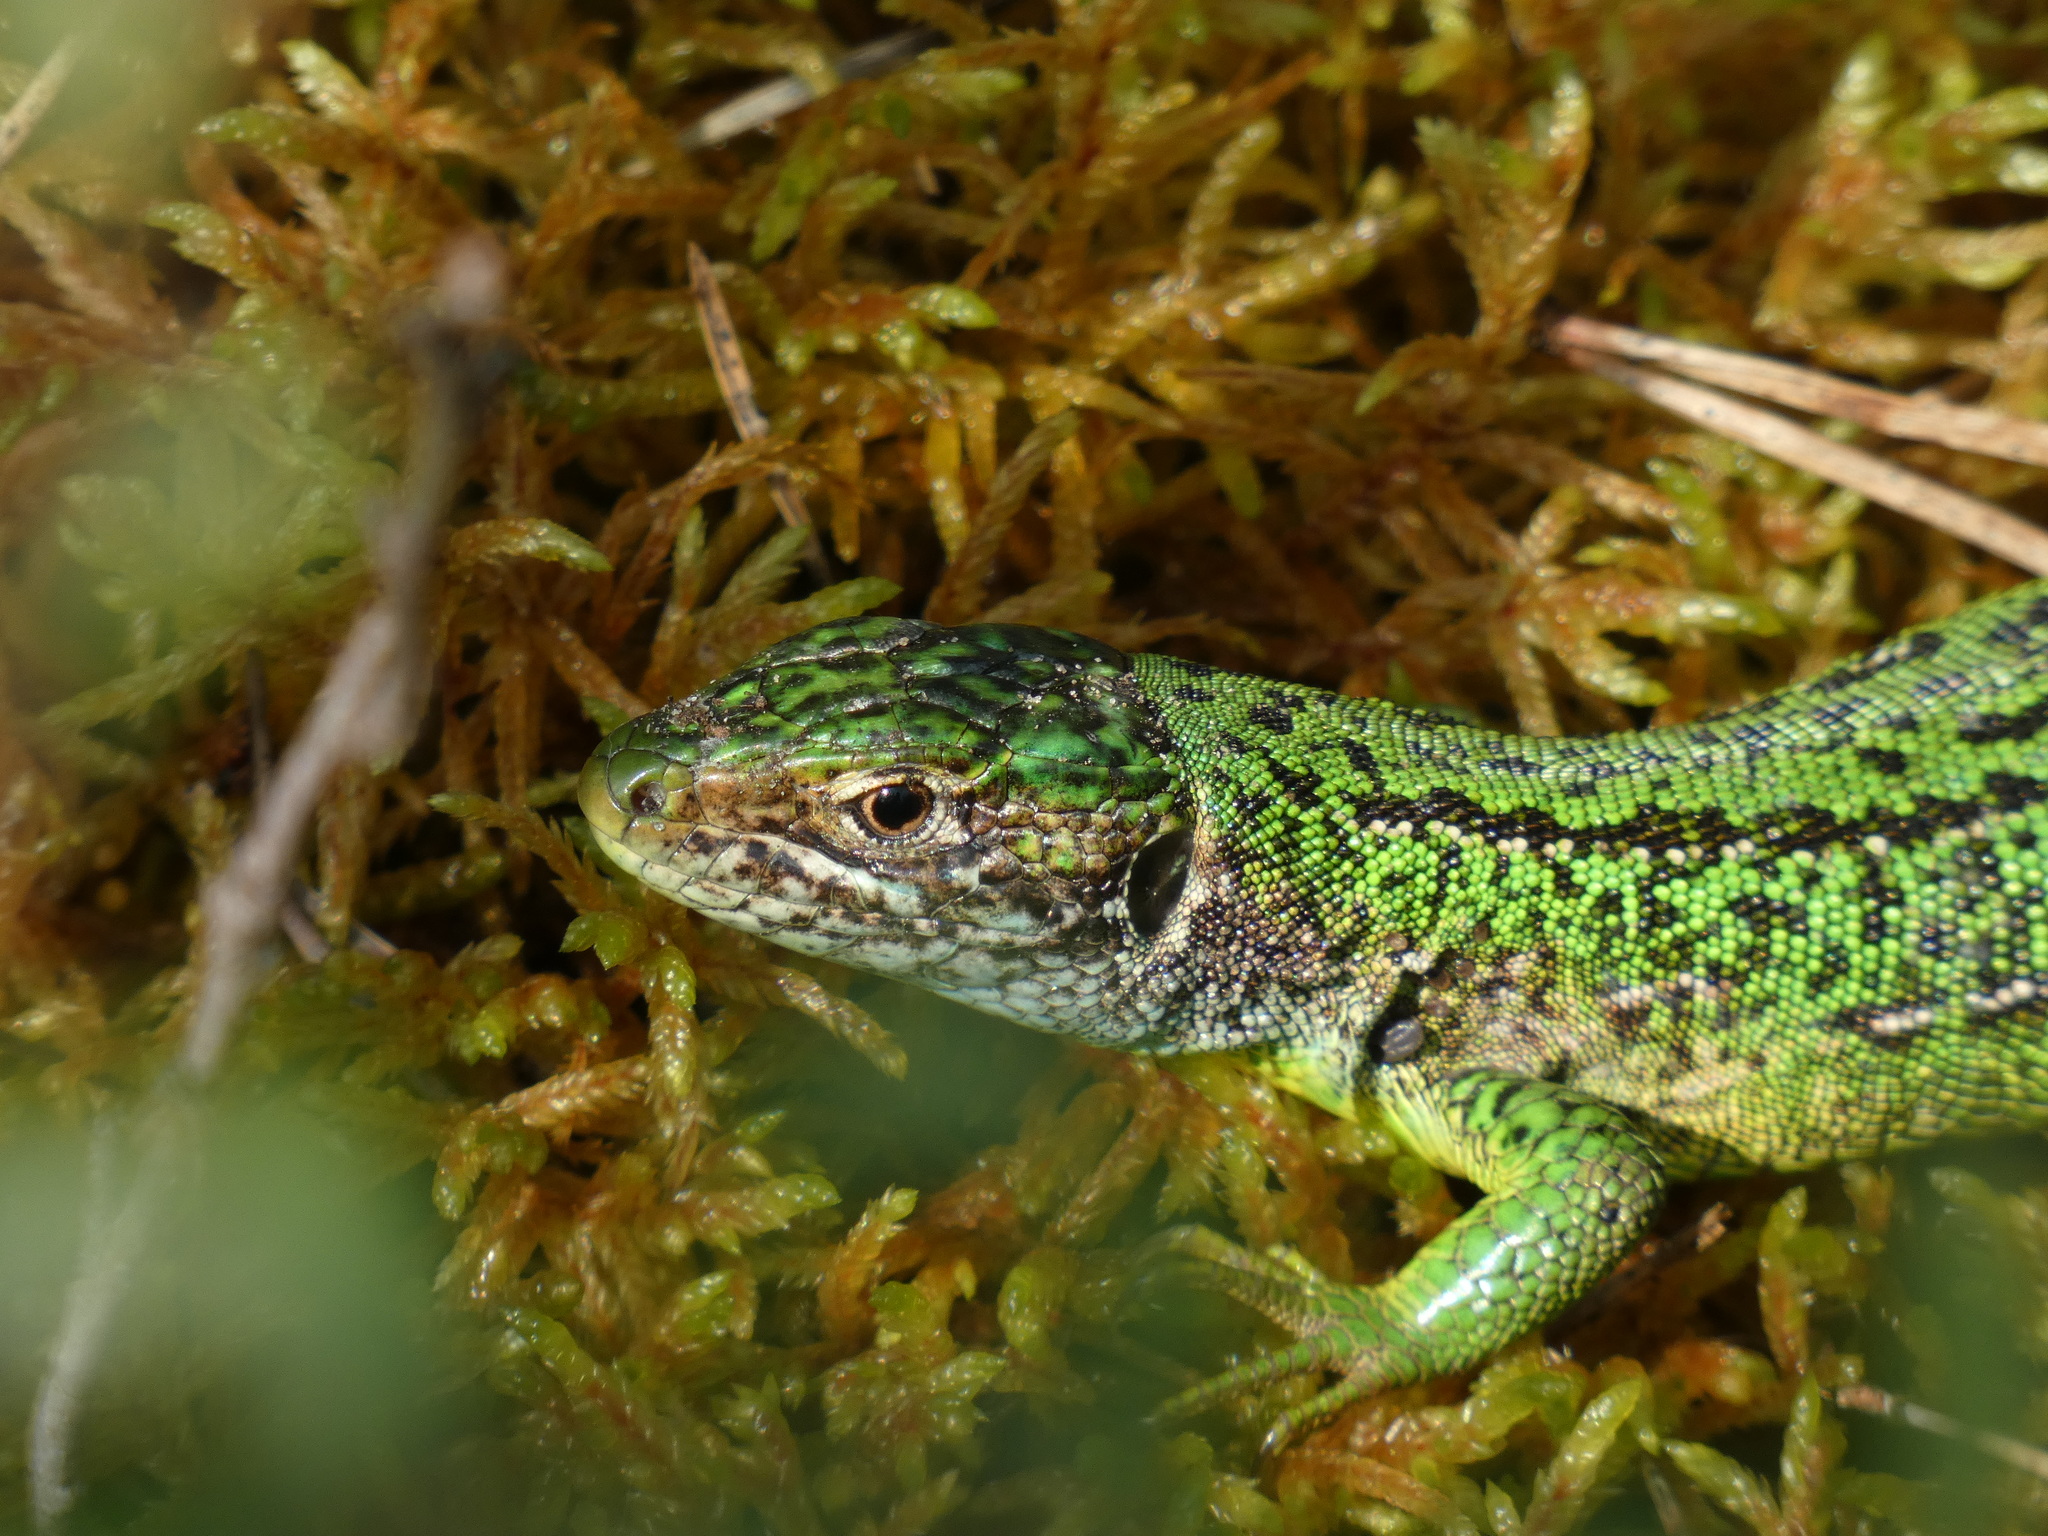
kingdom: Animalia
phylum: Chordata
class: Squamata
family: Lacertidae
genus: Lacerta
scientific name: Lacerta bilineata
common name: Western green lizard
